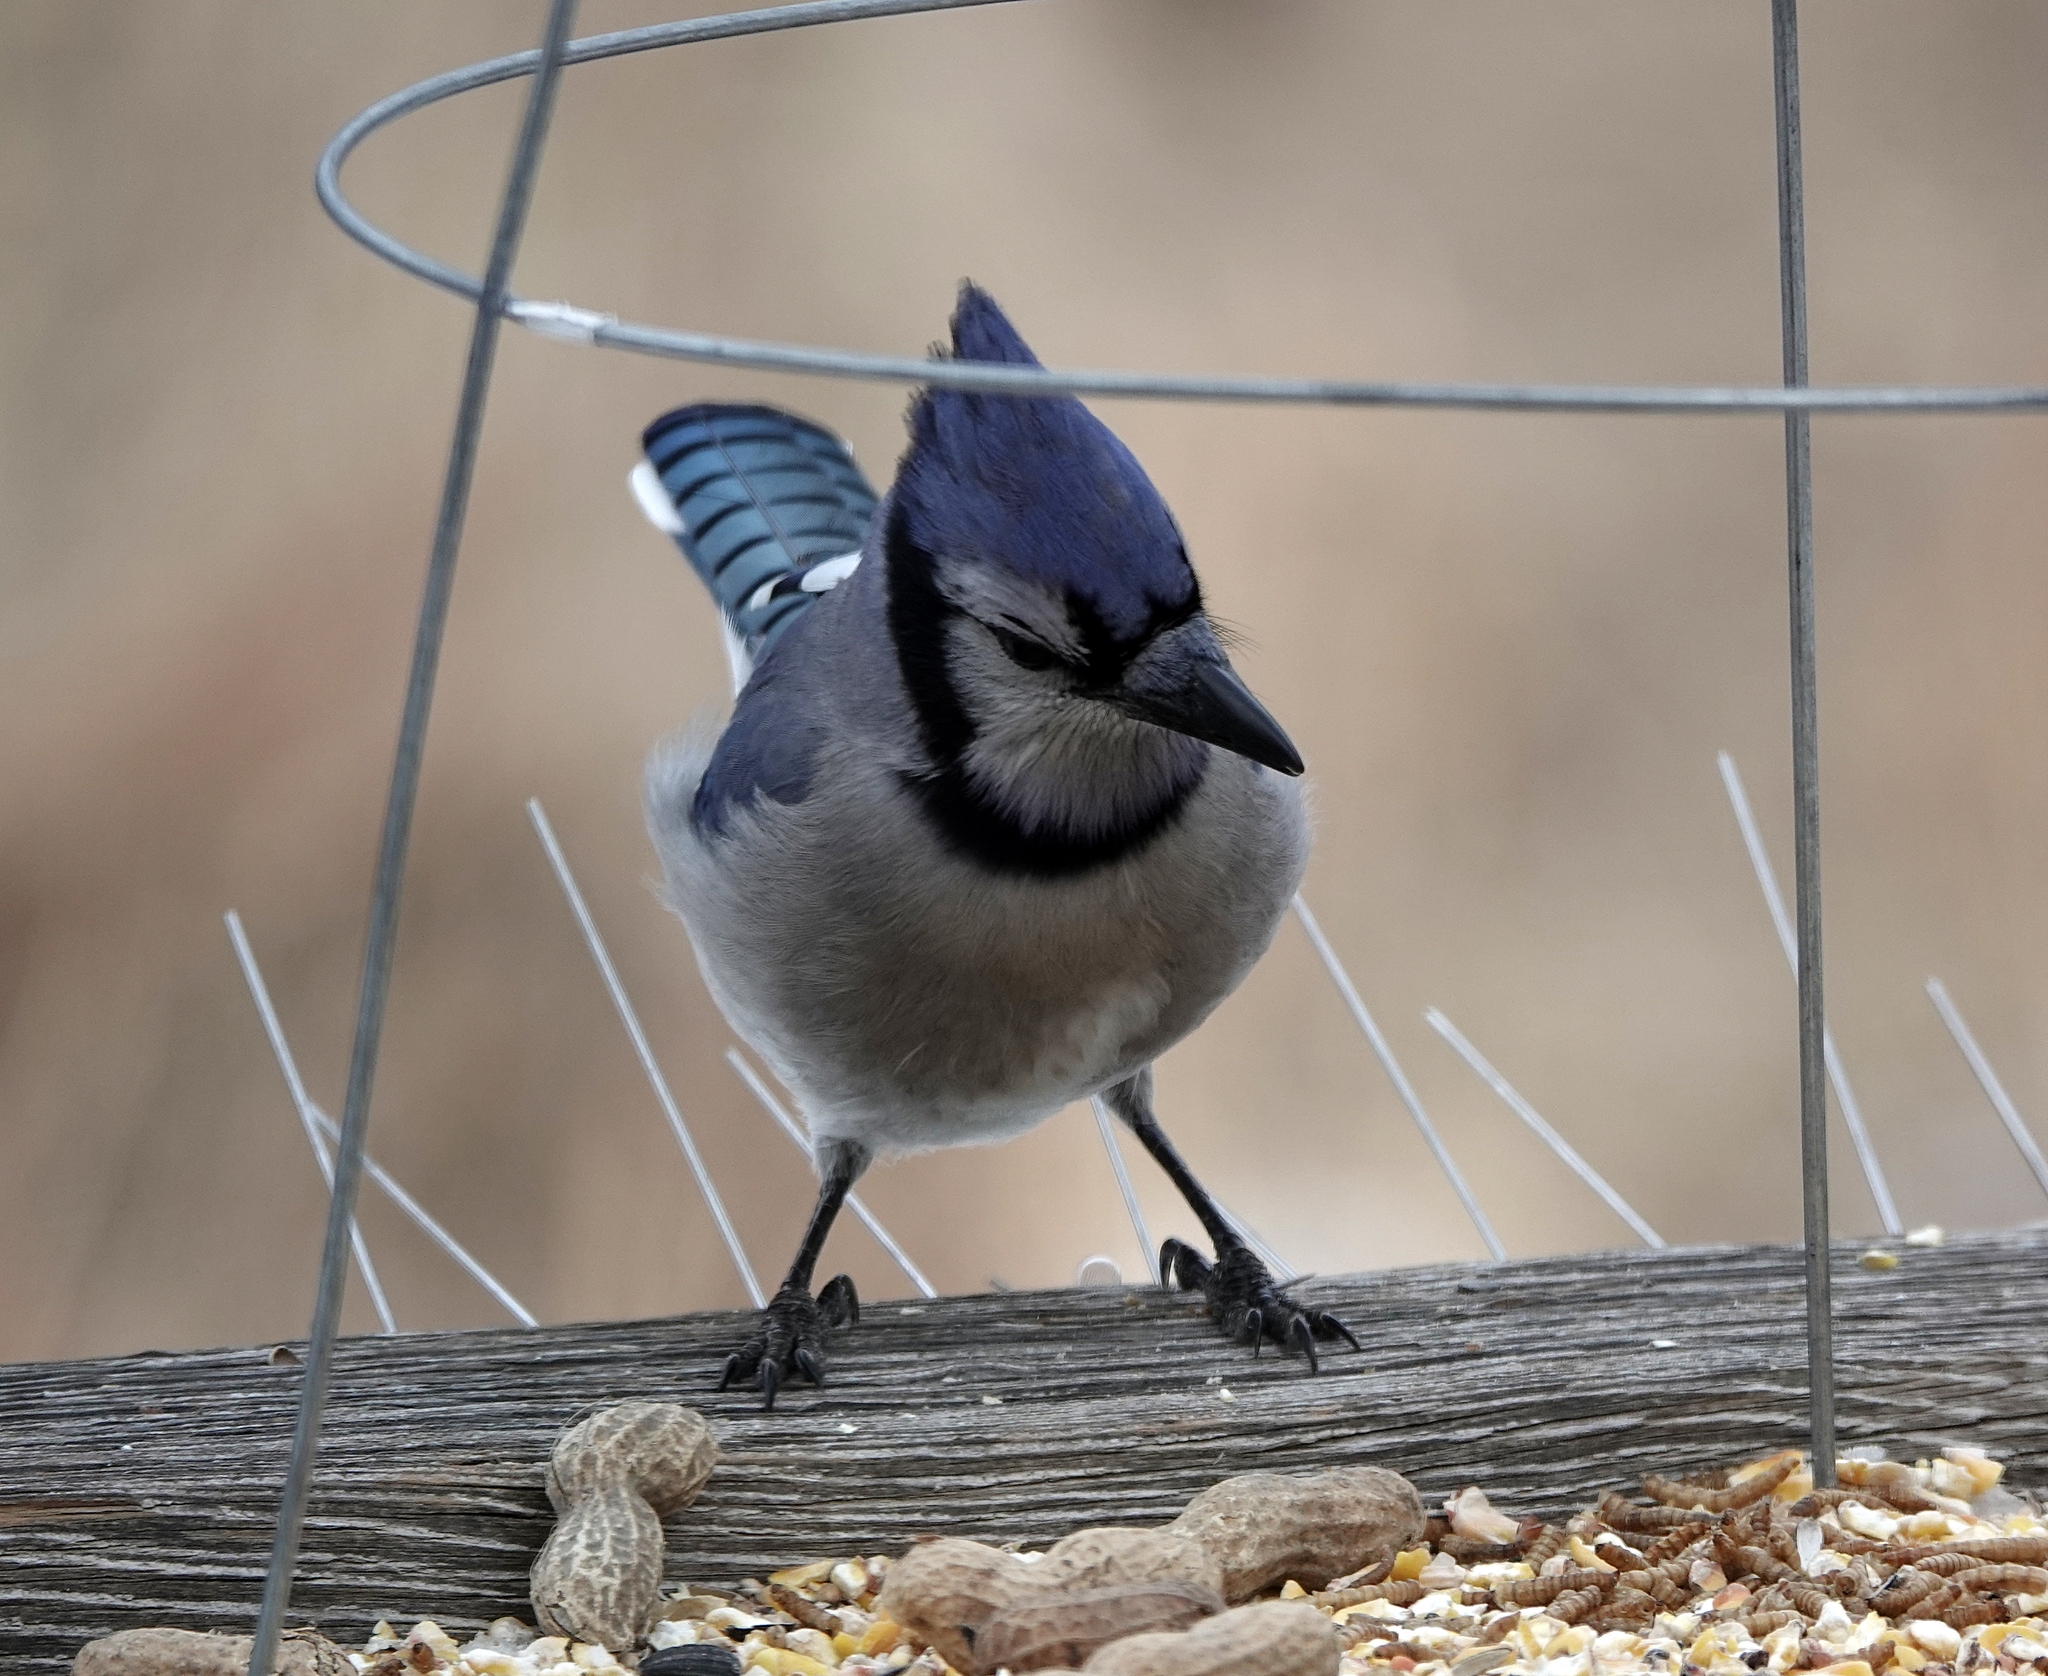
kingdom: Animalia
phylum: Chordata
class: Aves
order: Passeriformes
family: Corvidae
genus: Cyanocitta
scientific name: Cyanocitta cristata
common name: Blue jay
